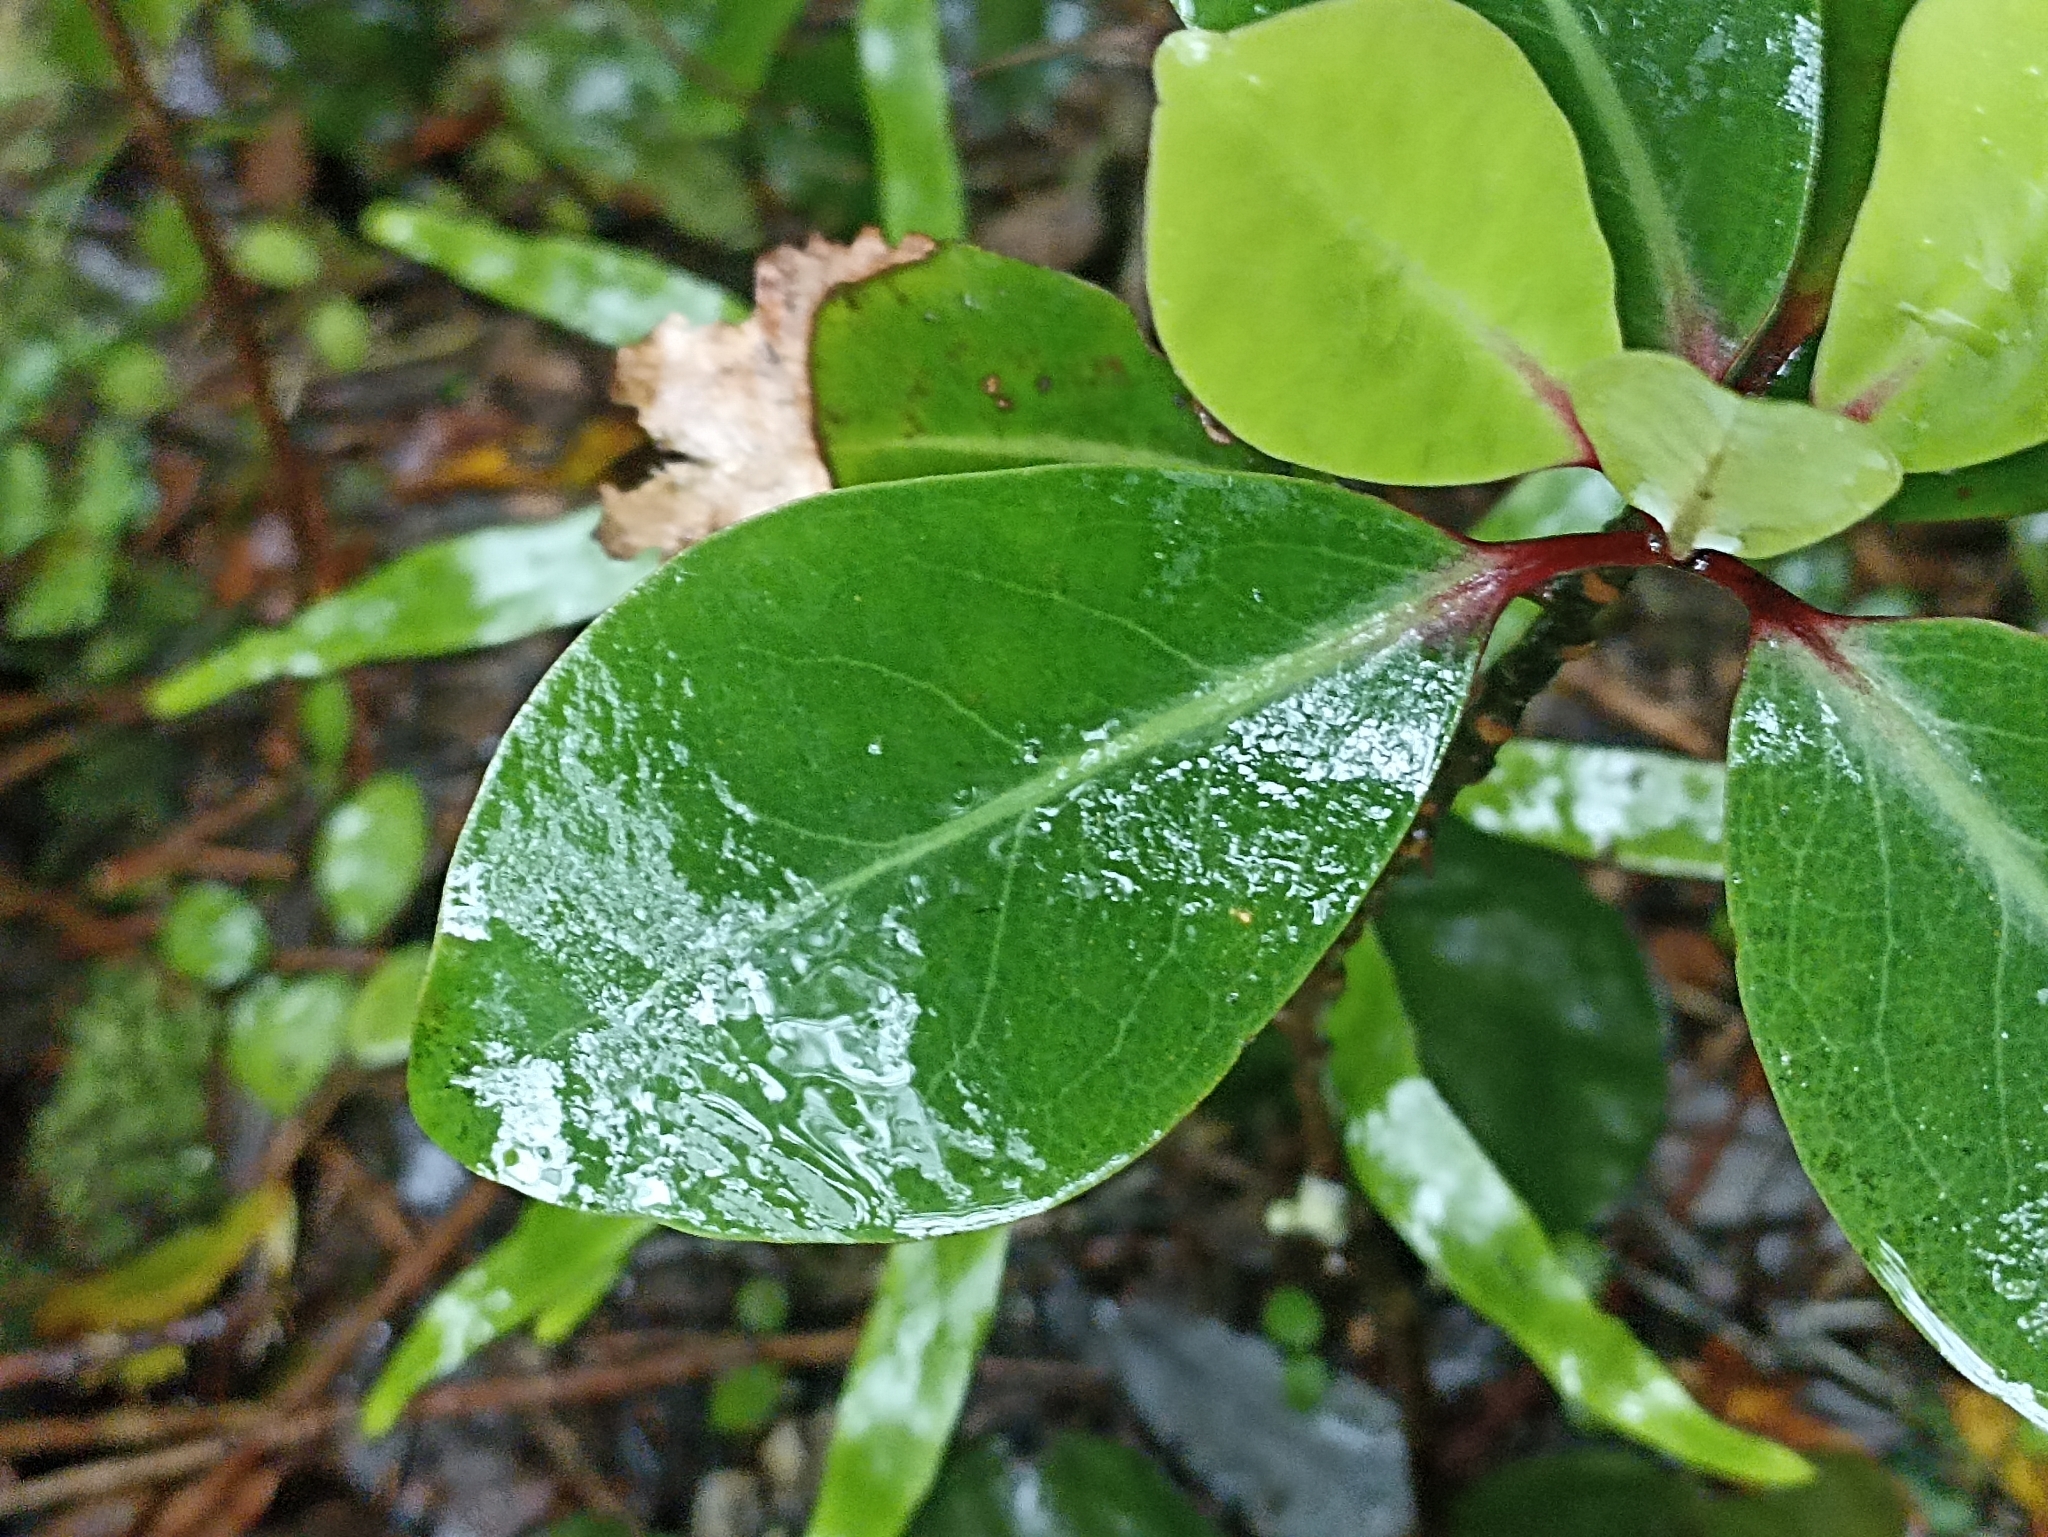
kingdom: Plantae
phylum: Tracheophyta
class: Magnoliopsida
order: Canellales
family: Winteraceae
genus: Pseudowintera
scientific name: Pseudowintera axillaris
